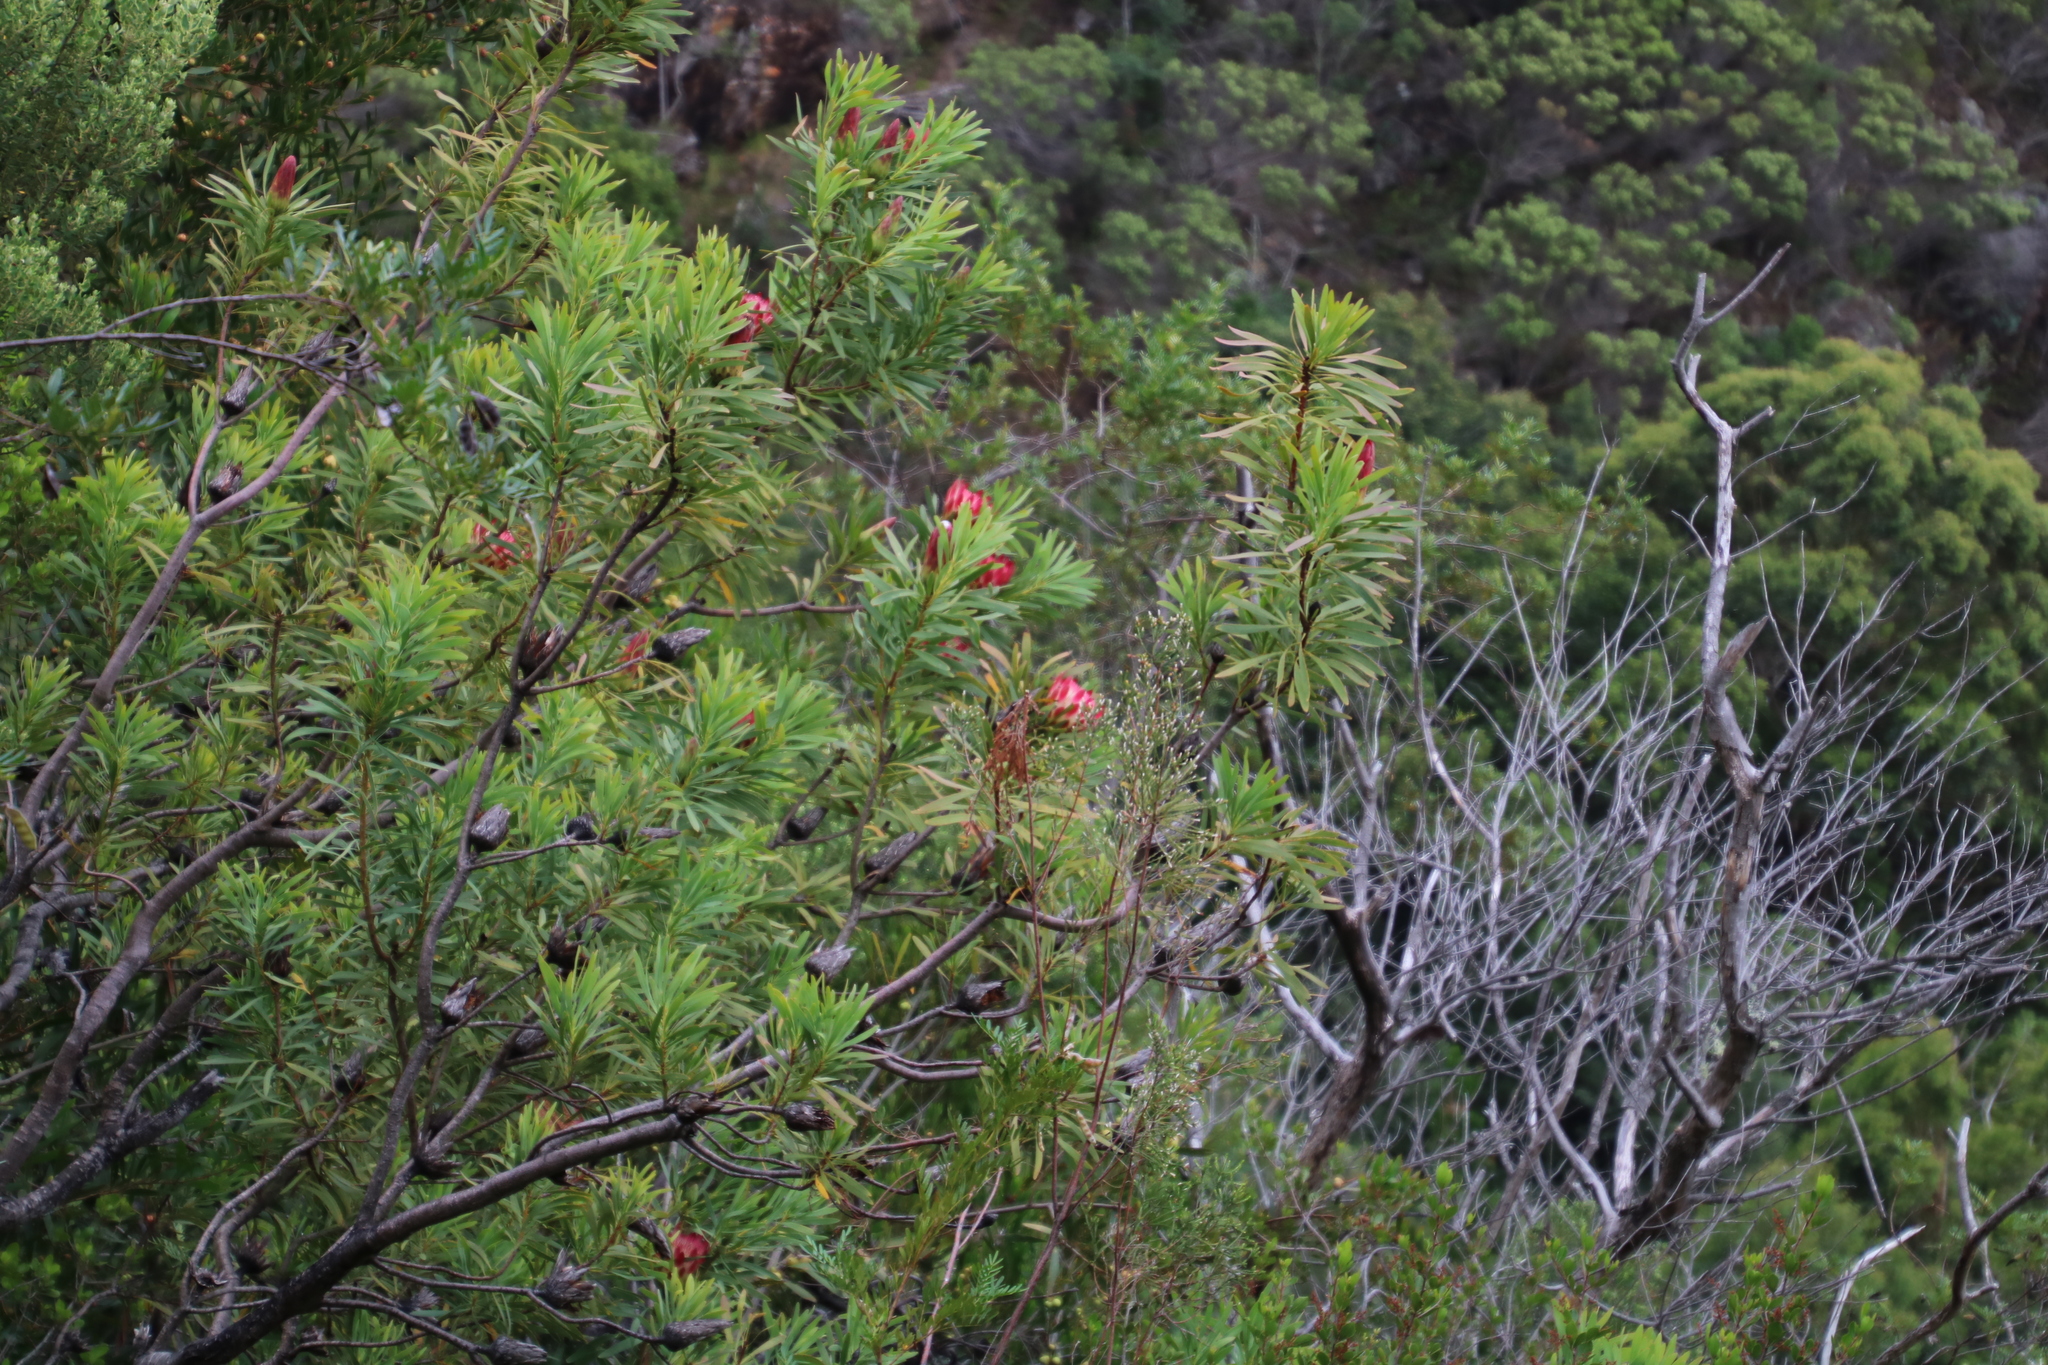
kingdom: Plantae
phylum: Tracheophyta
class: Magnoliopsida
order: Proteales
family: Proteaceae
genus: Protea
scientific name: Protea repens
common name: Sugarbush
